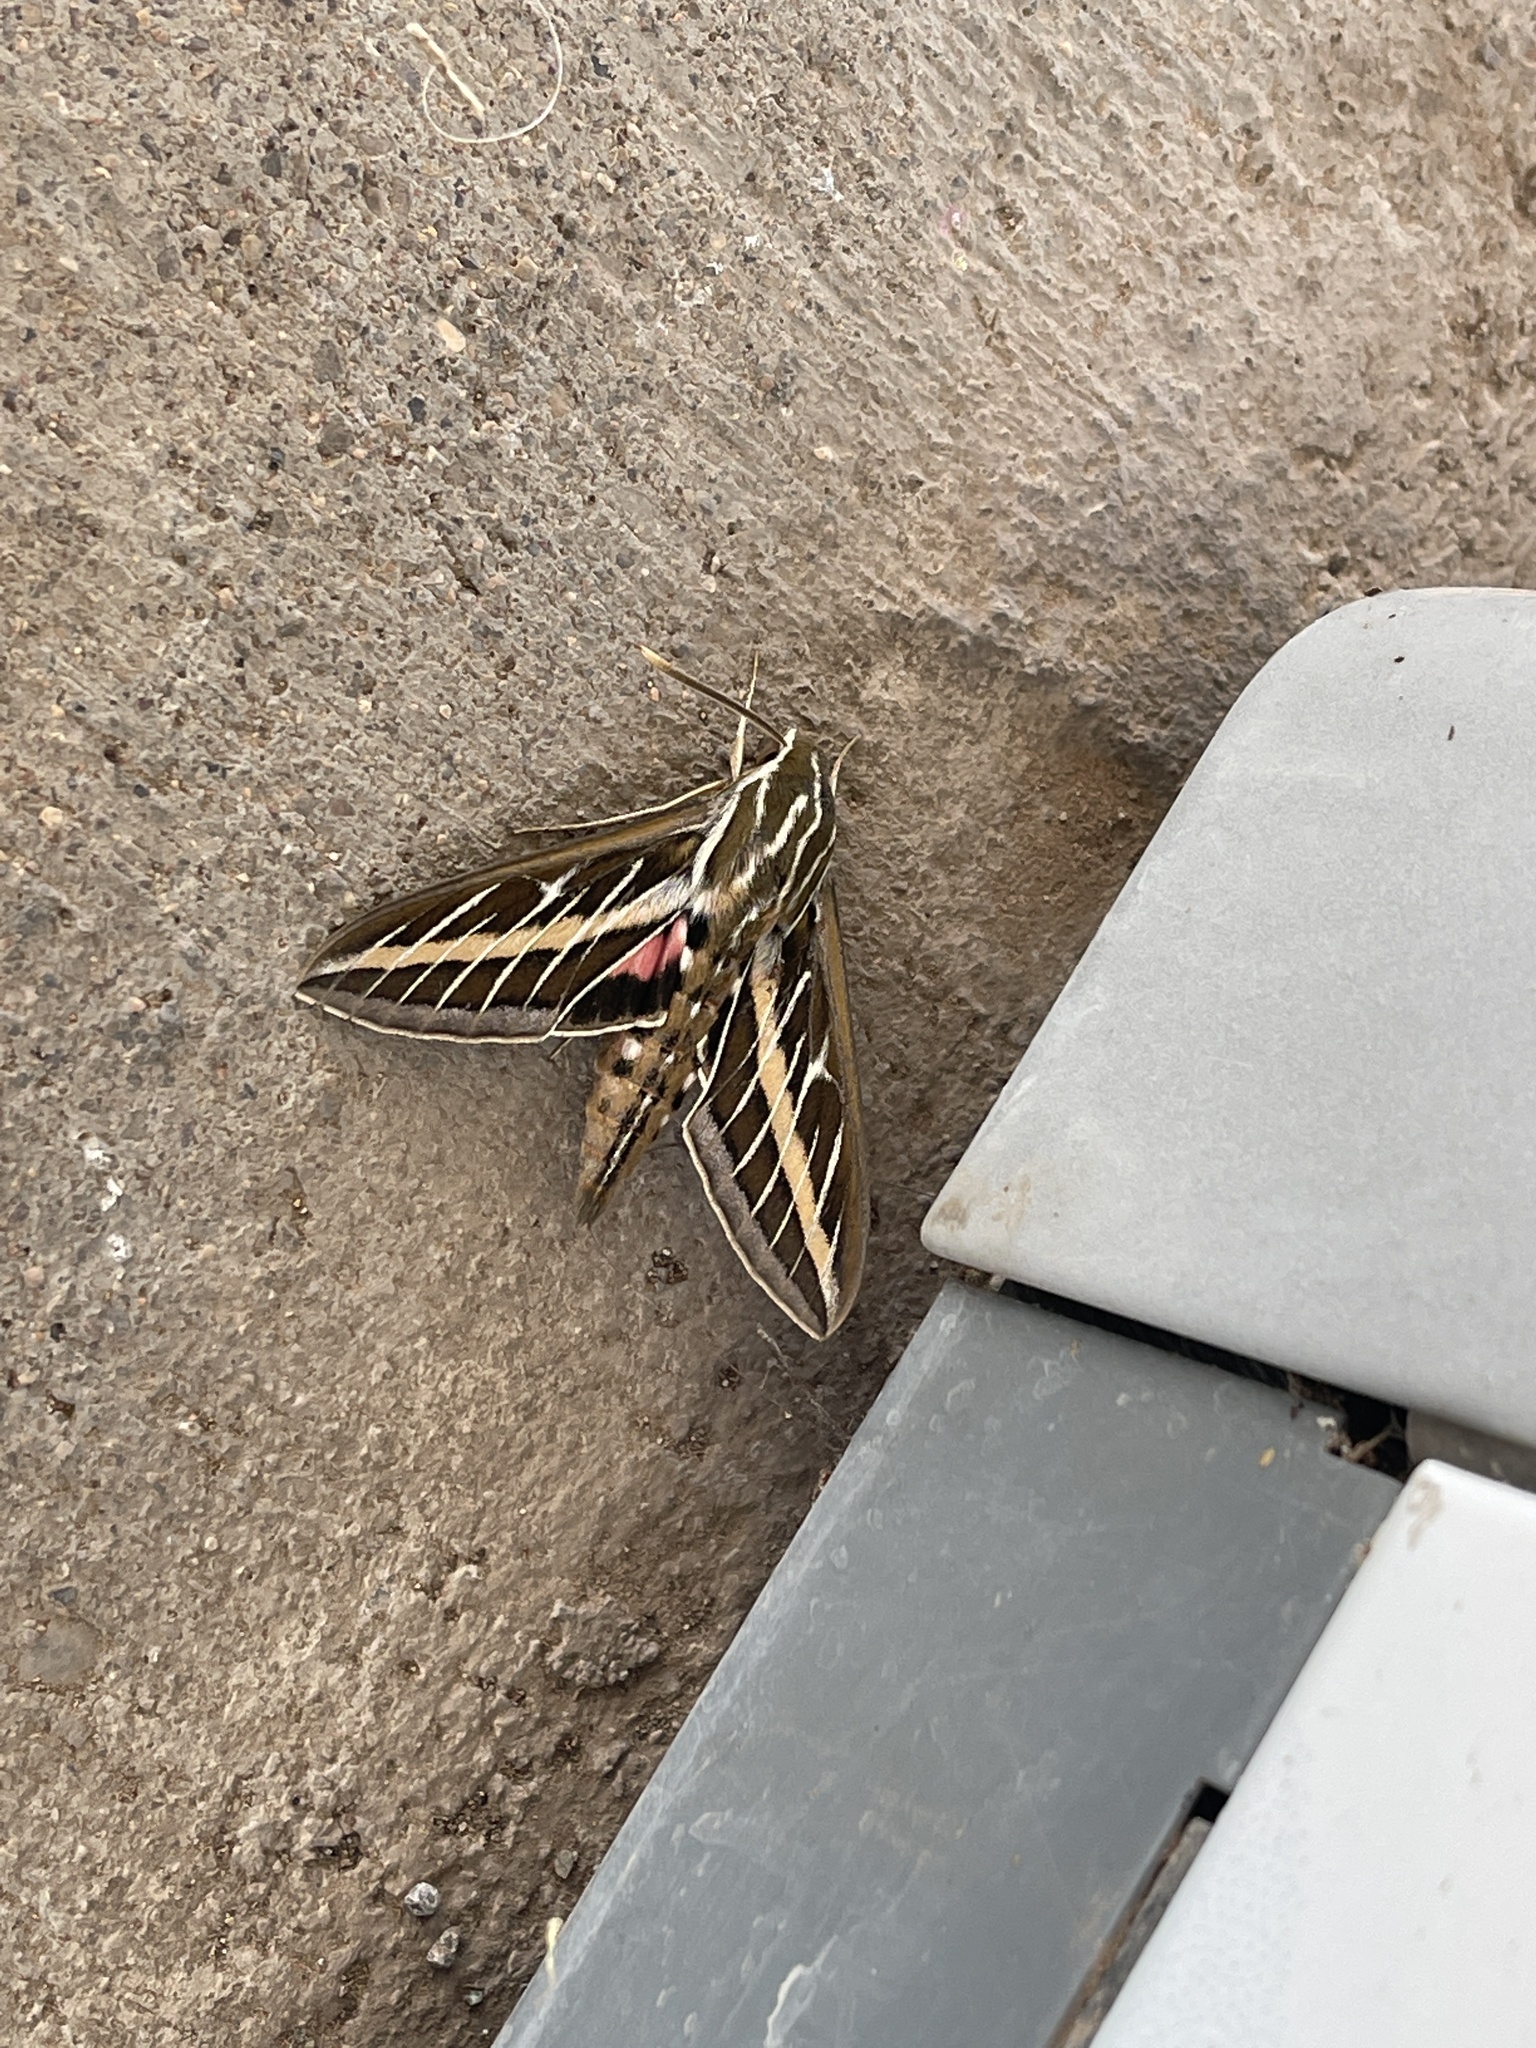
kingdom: Animalia
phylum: Arthropoda
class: Insecta
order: Lepidoptera
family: Sphingidae
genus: Hyles
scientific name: Hyles lineata
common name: White-lined sphinx
